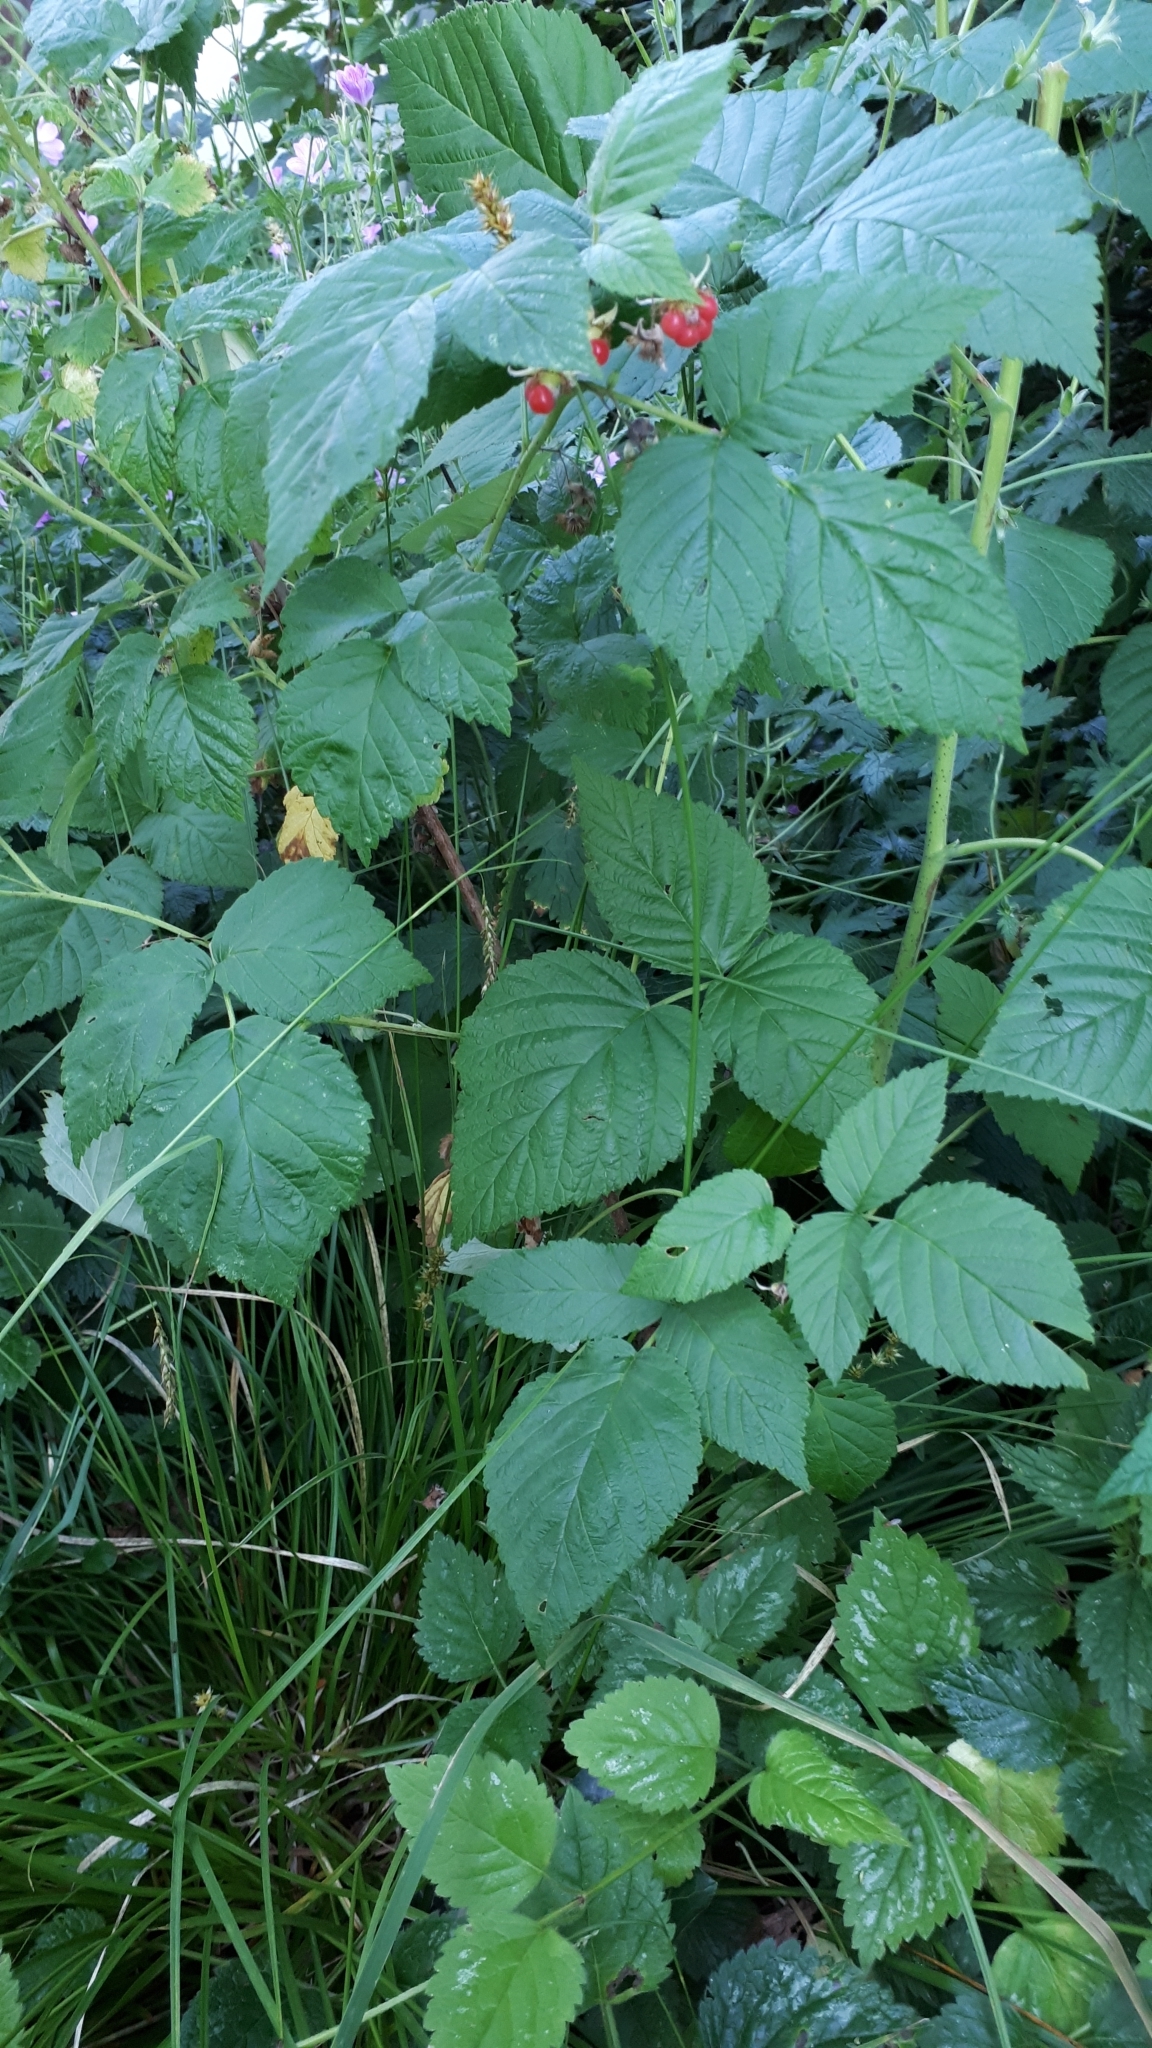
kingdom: Plantae
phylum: Tracheophyta
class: Magnoliopsida
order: Rosales
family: Rosaceae
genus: Rubus
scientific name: Rubus idaeus
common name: Raspberry
